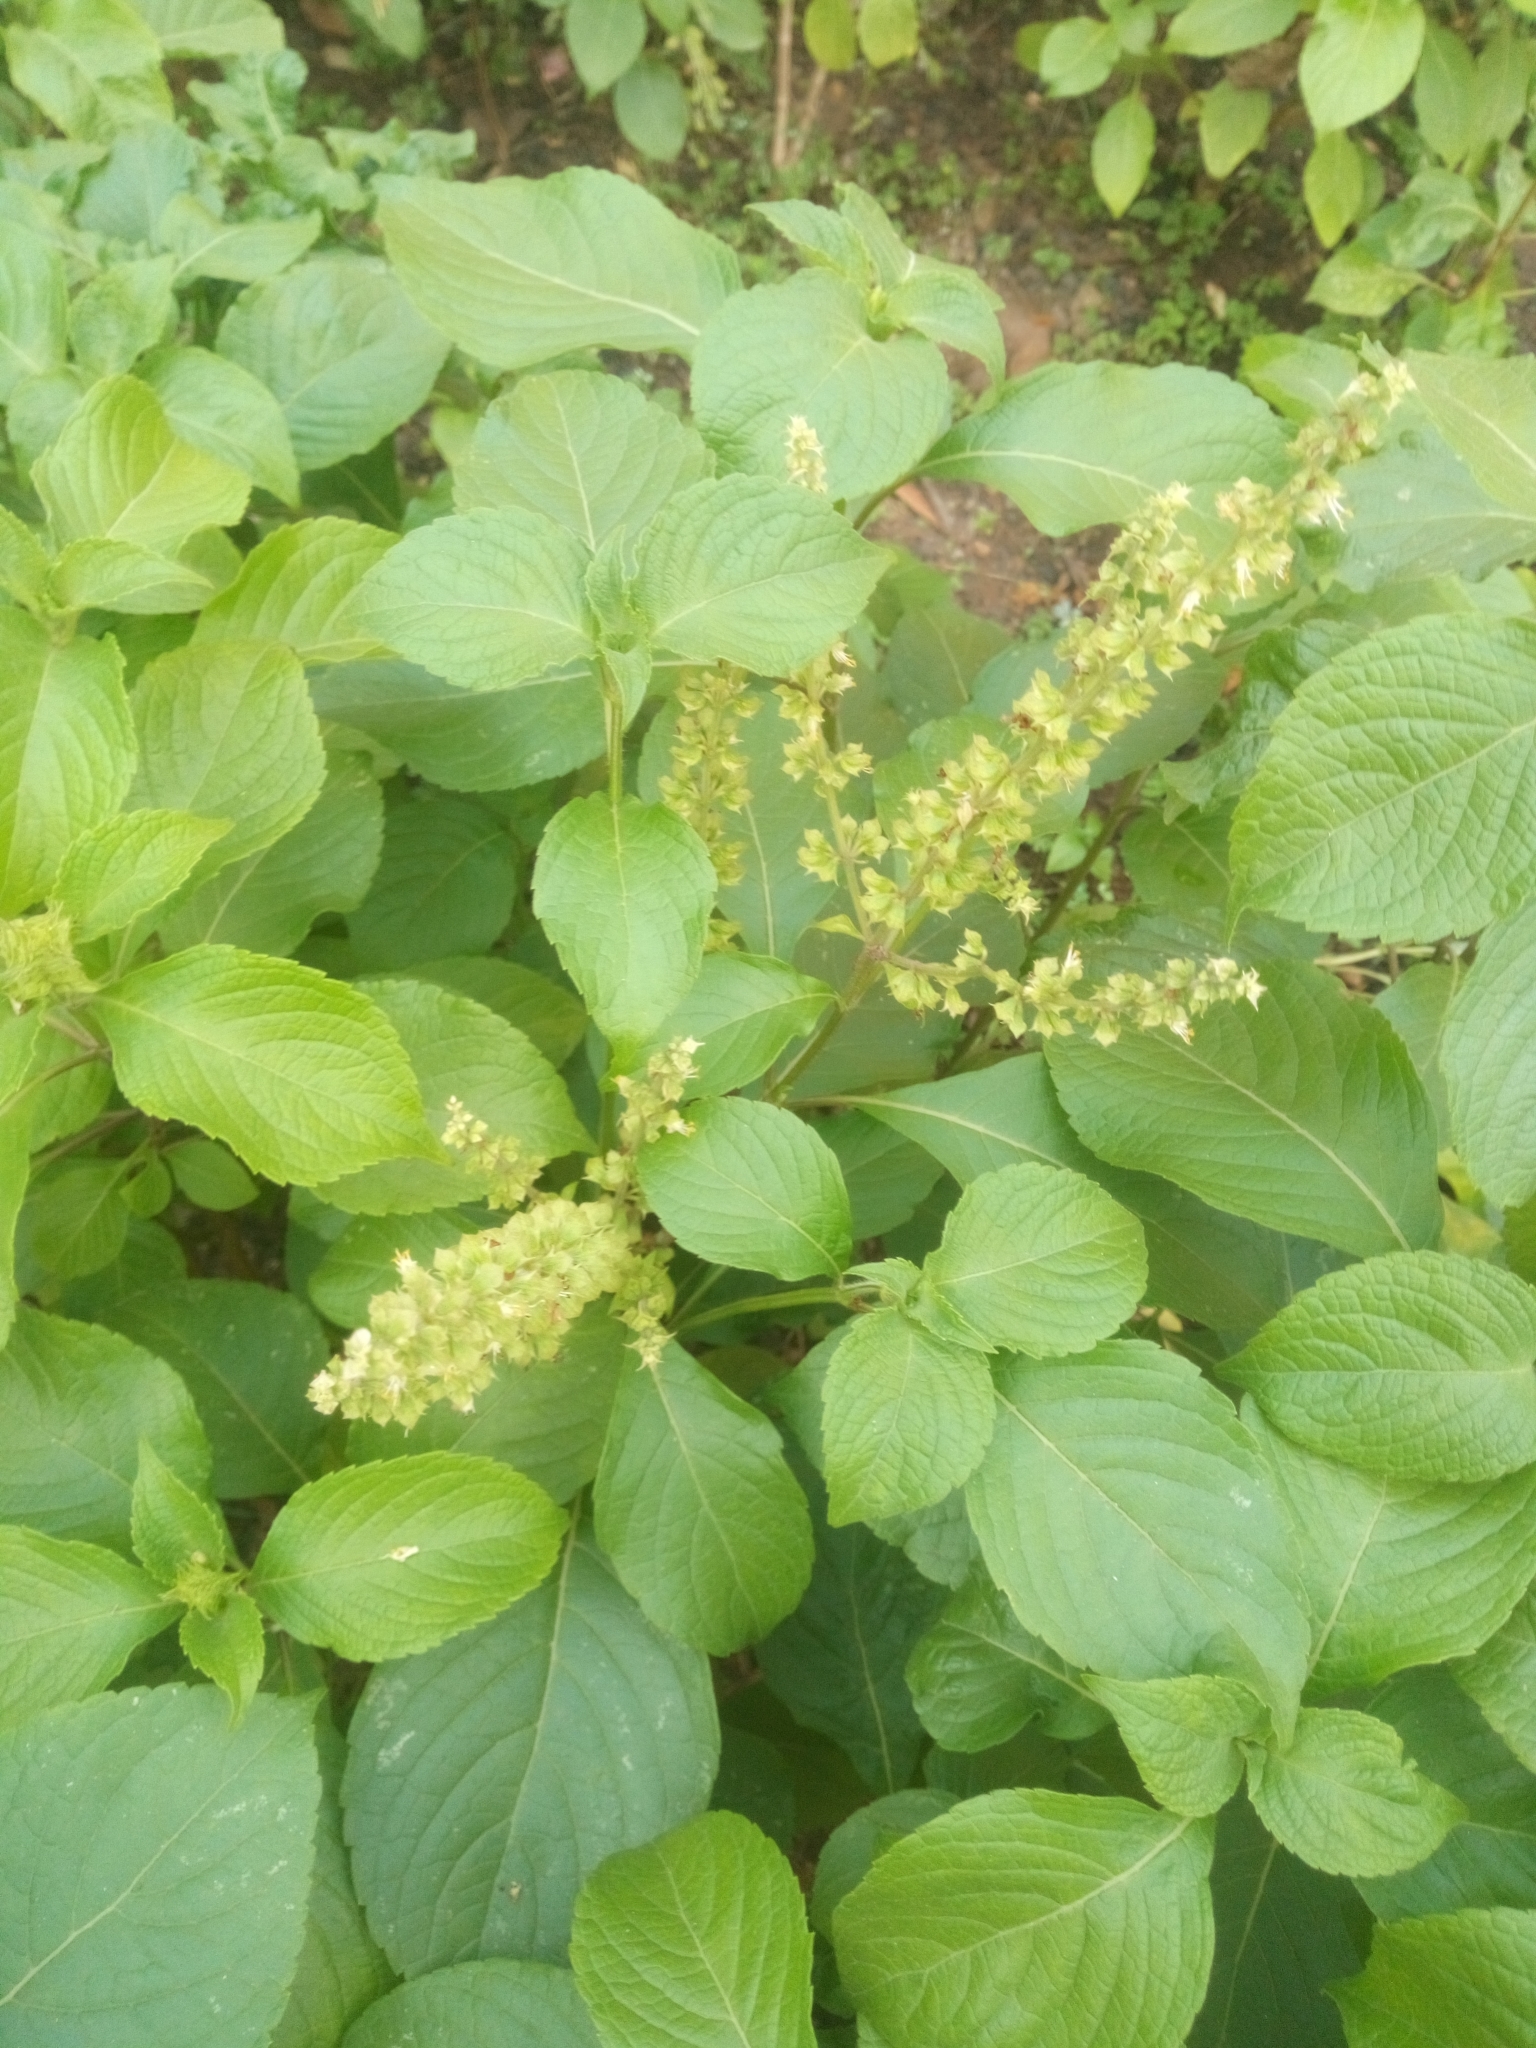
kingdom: Plantae
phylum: Tracheophyta
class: Magnoliopsida
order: Lamiales
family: Lamiaceae
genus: Ocimum
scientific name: Ocimum tenuiflorum
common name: Sacred basil
